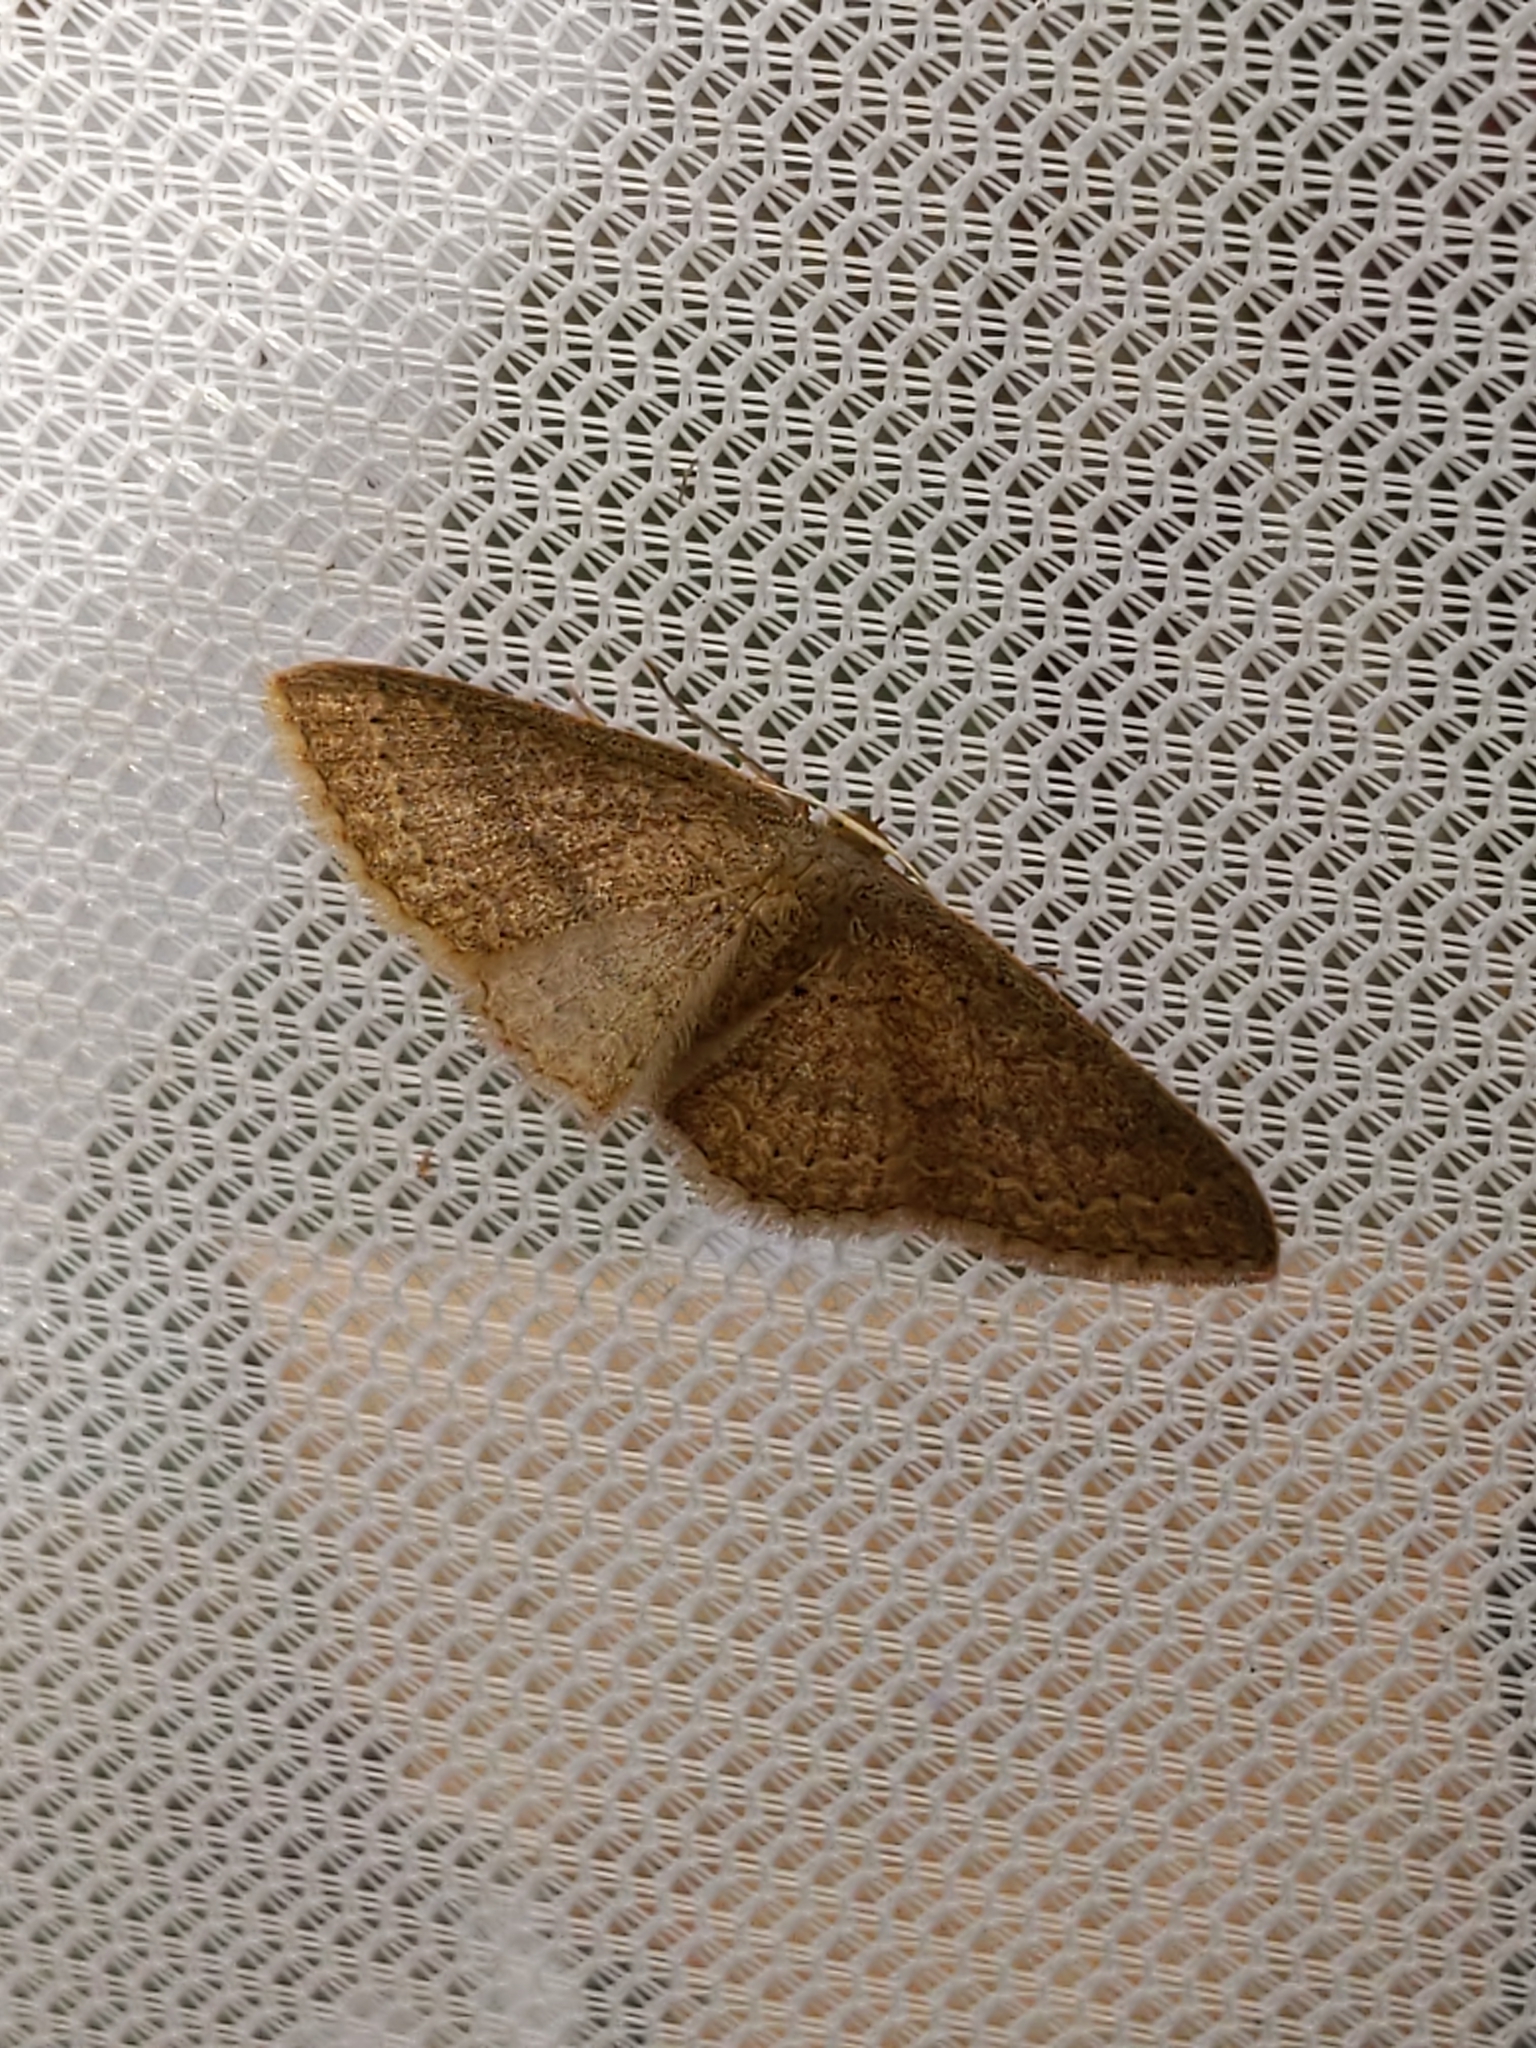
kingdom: Animalia
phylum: Arthropoda
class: Insecta
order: Lepidoptera
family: Geometridae
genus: Pleuroprucha
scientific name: Pleuroprucha insulsaria
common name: Common tan wave
